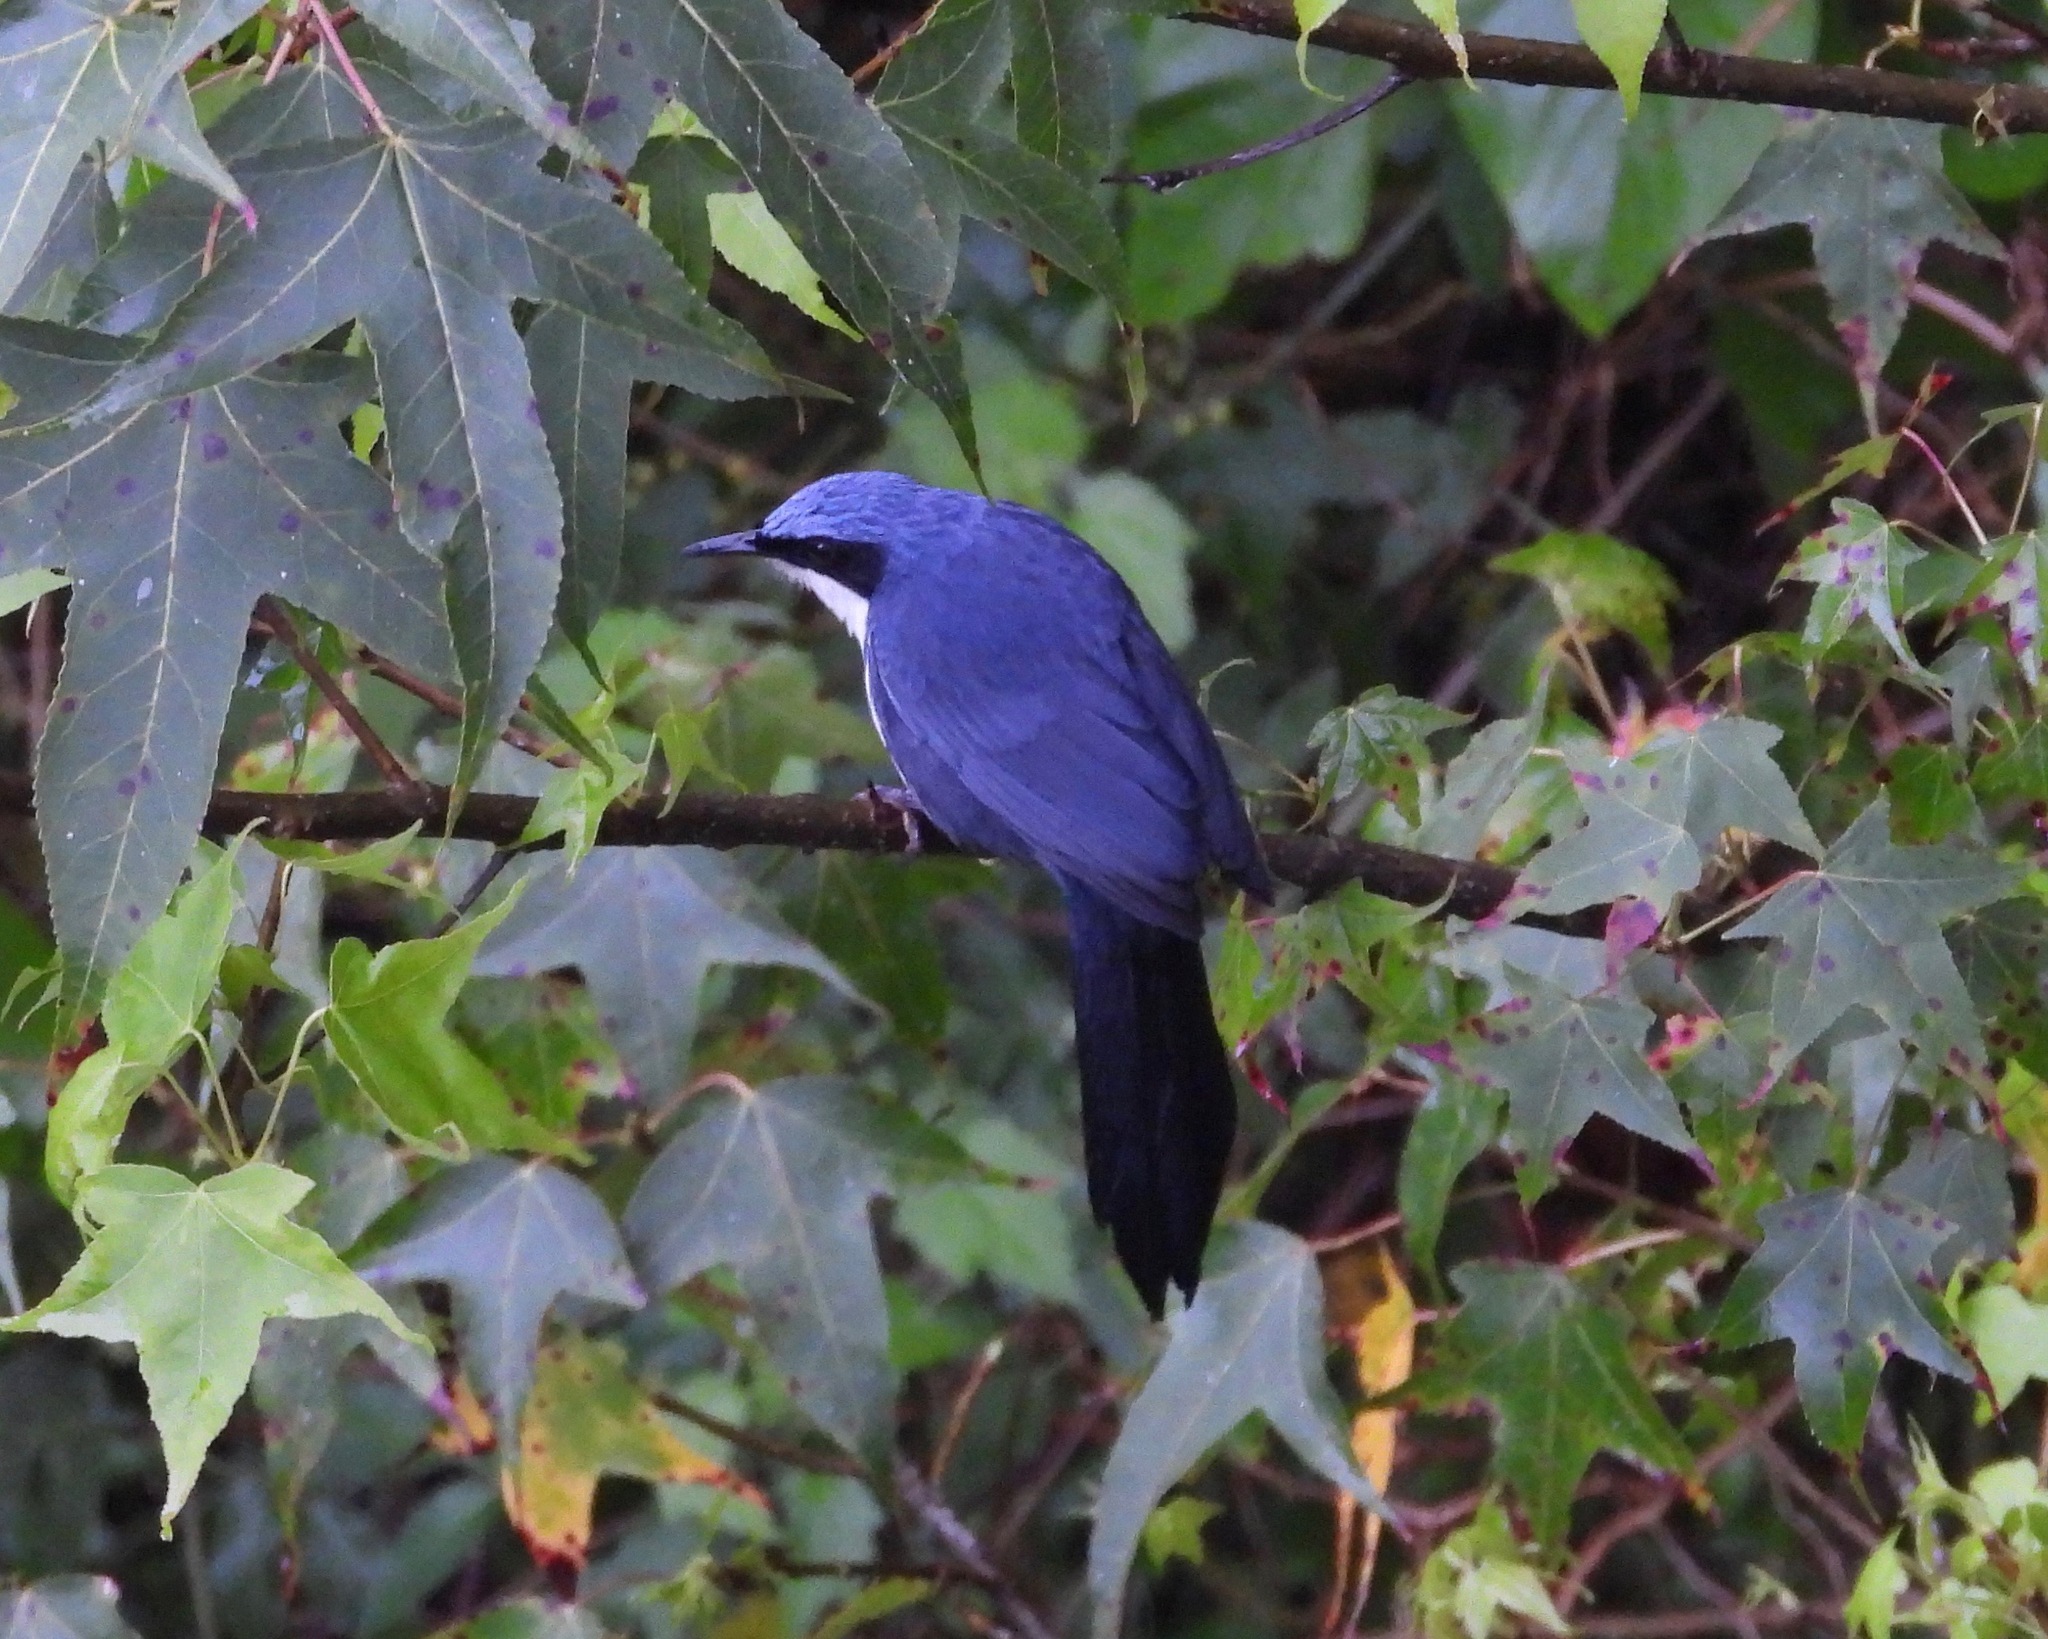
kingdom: Animalia
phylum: Chordata
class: Aves
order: Passeriformes
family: Mimidae
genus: Melanotis
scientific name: Melanotis hypoleucus
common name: Blue-and-white mockingbird
